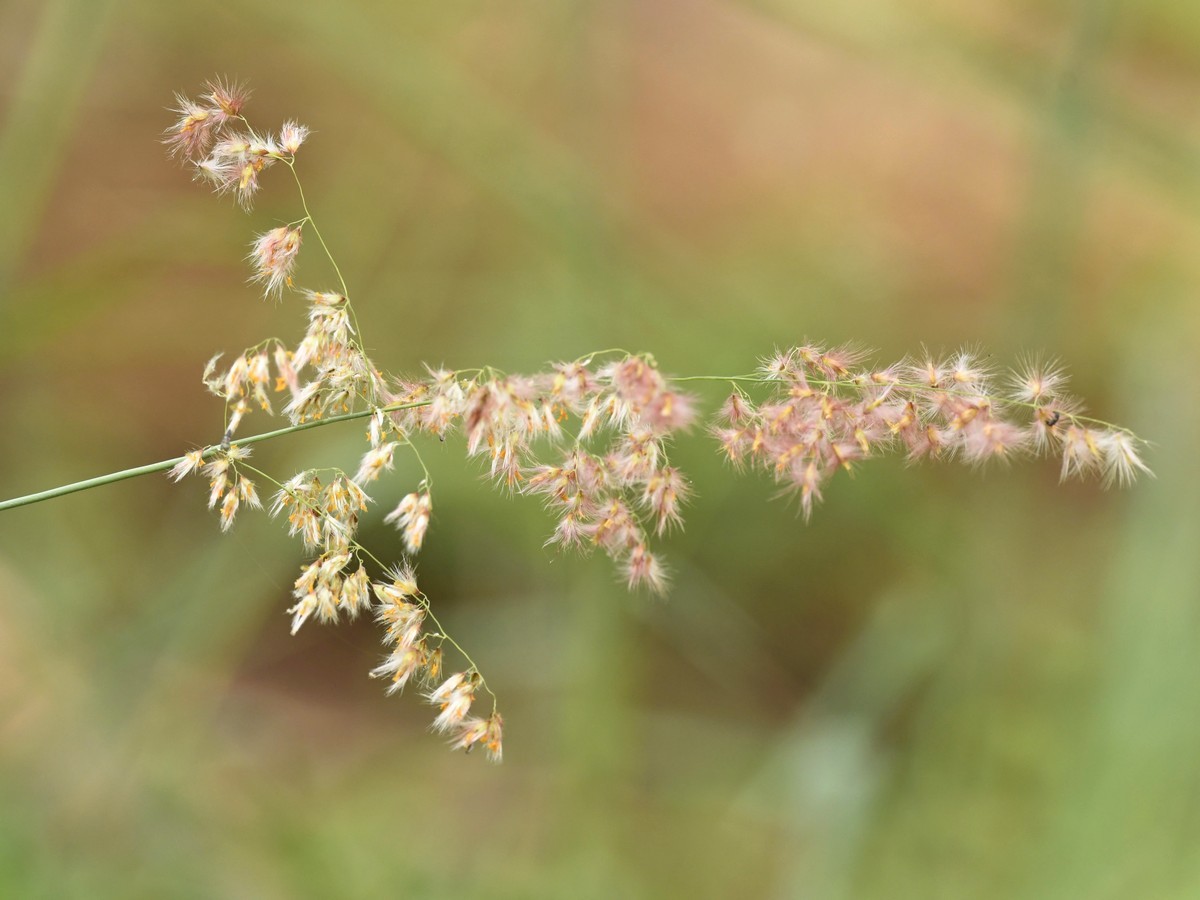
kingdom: Plantae
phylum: Tracheophyta
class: Liliopsida
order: Poales
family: Poaceae
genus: Melinis
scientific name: Melinis repens
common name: Rose natal grass
